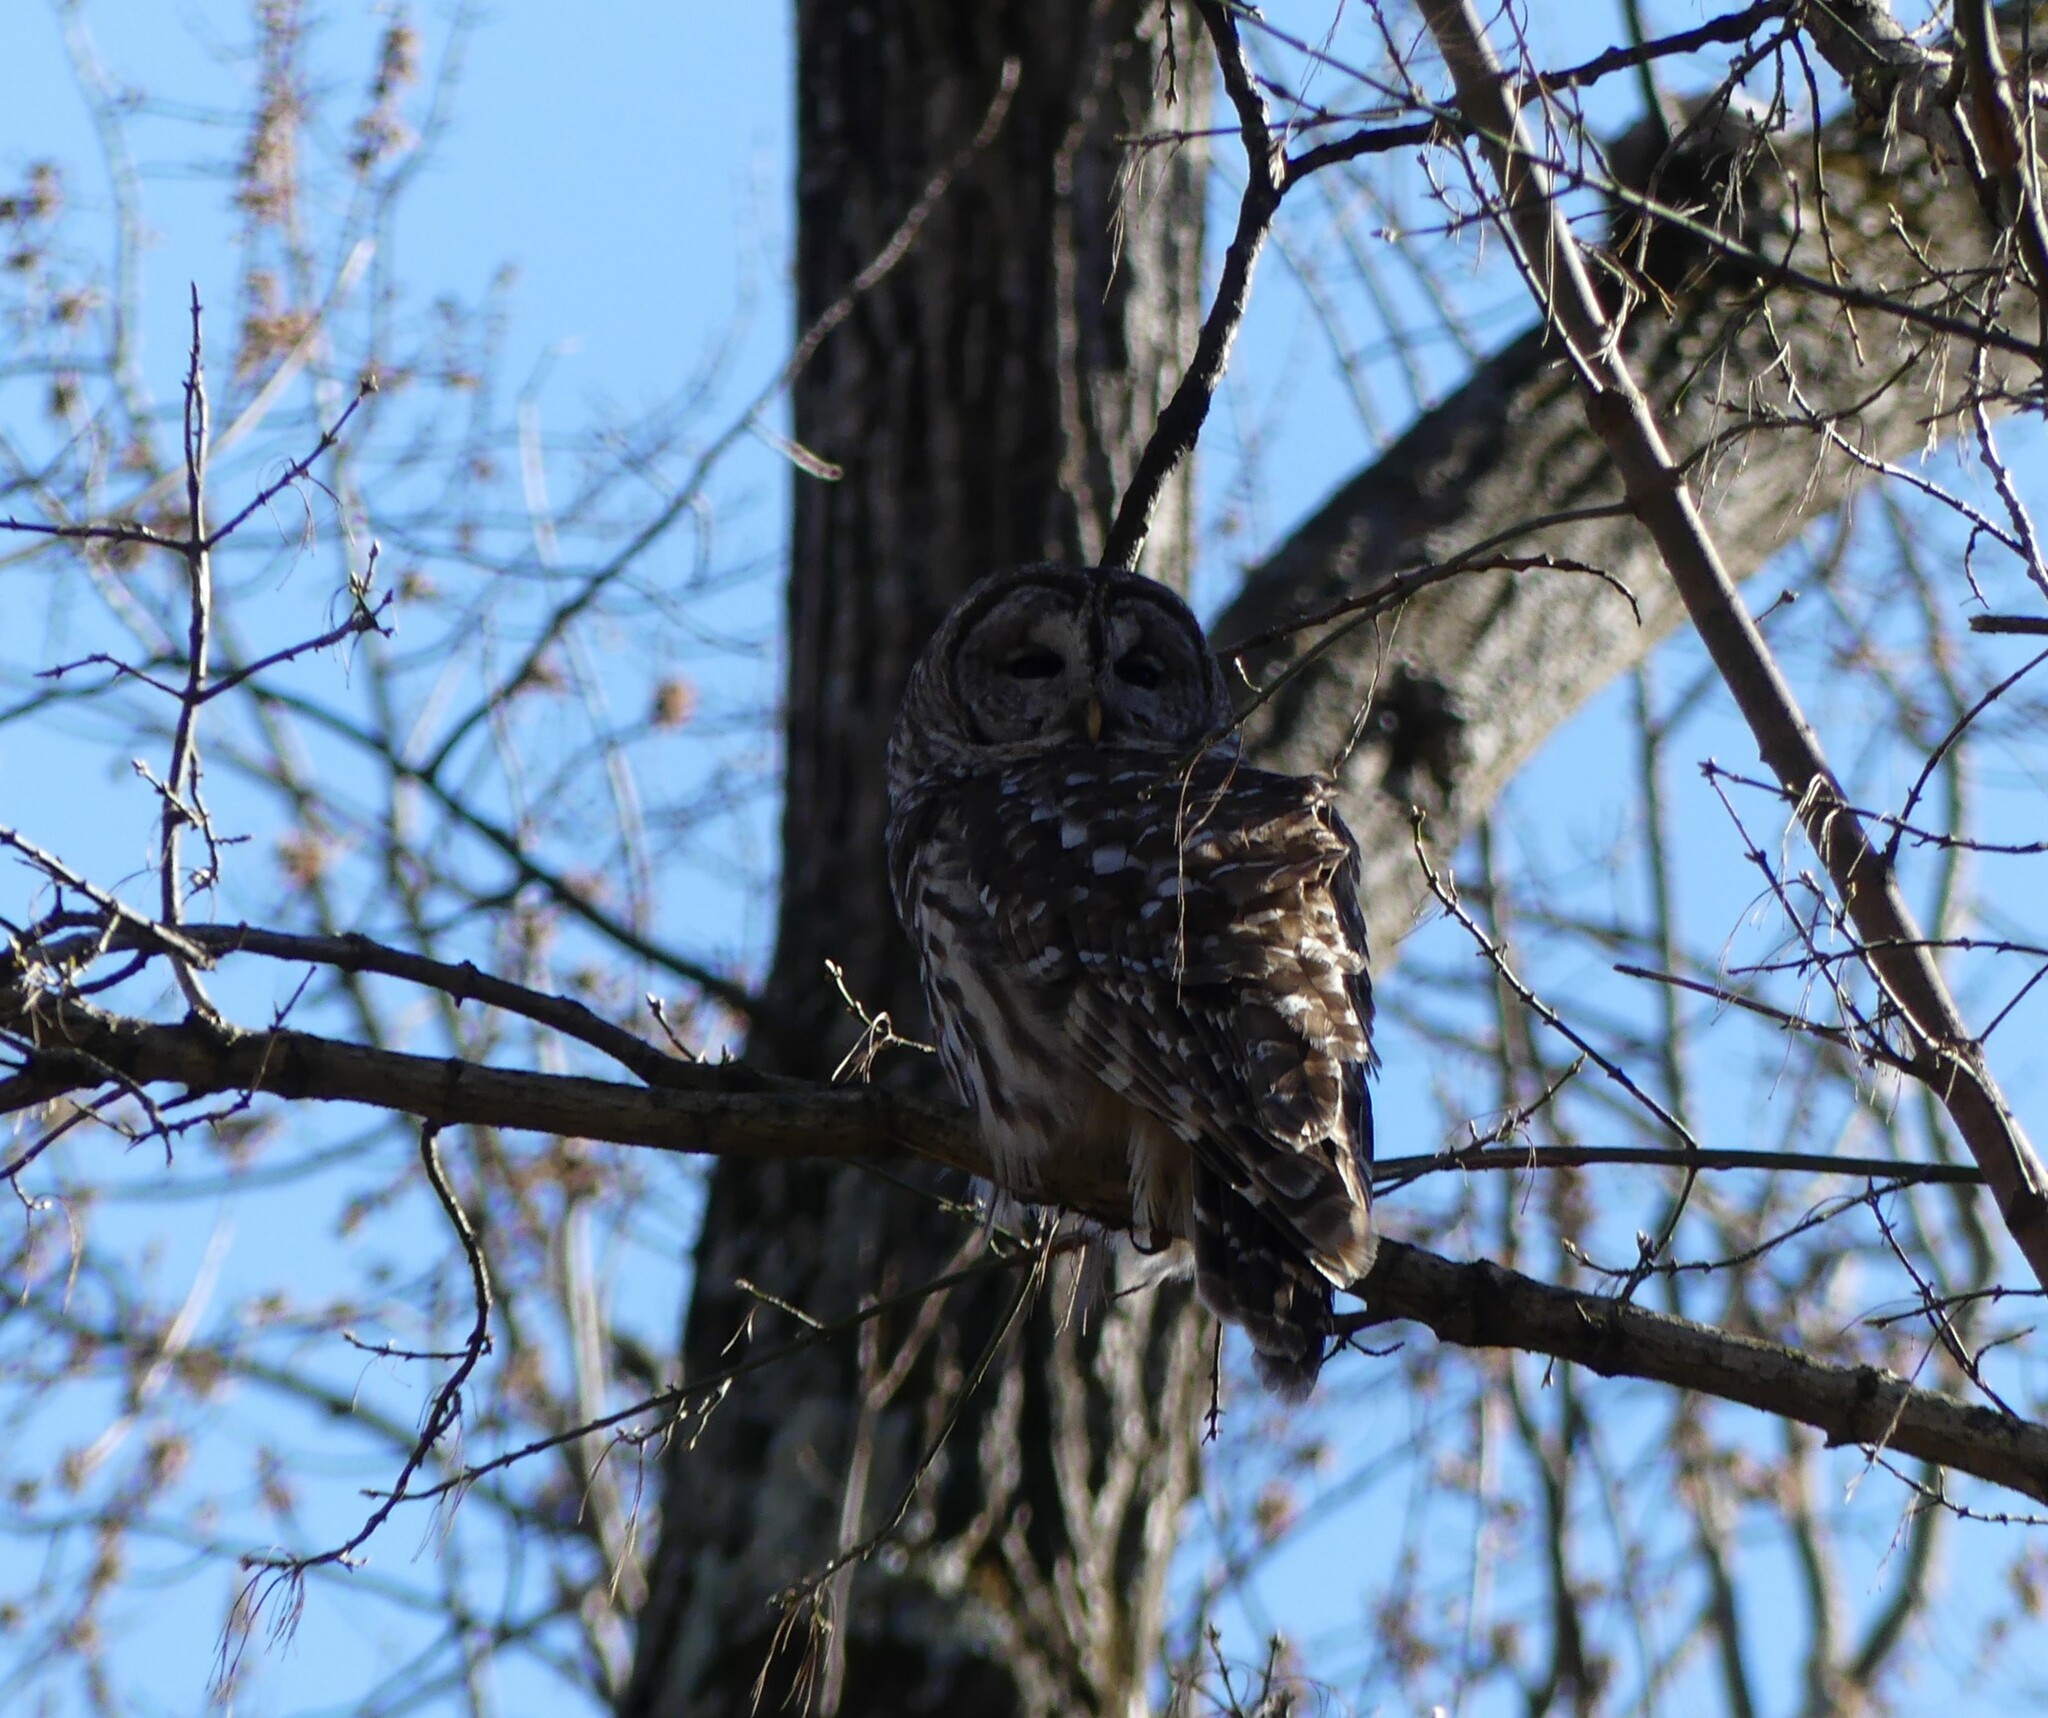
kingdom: Animalia
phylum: Chordata
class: Aves
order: Strigiformes
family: Strigidae
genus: Strix
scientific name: Strix varia
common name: Barred owl
